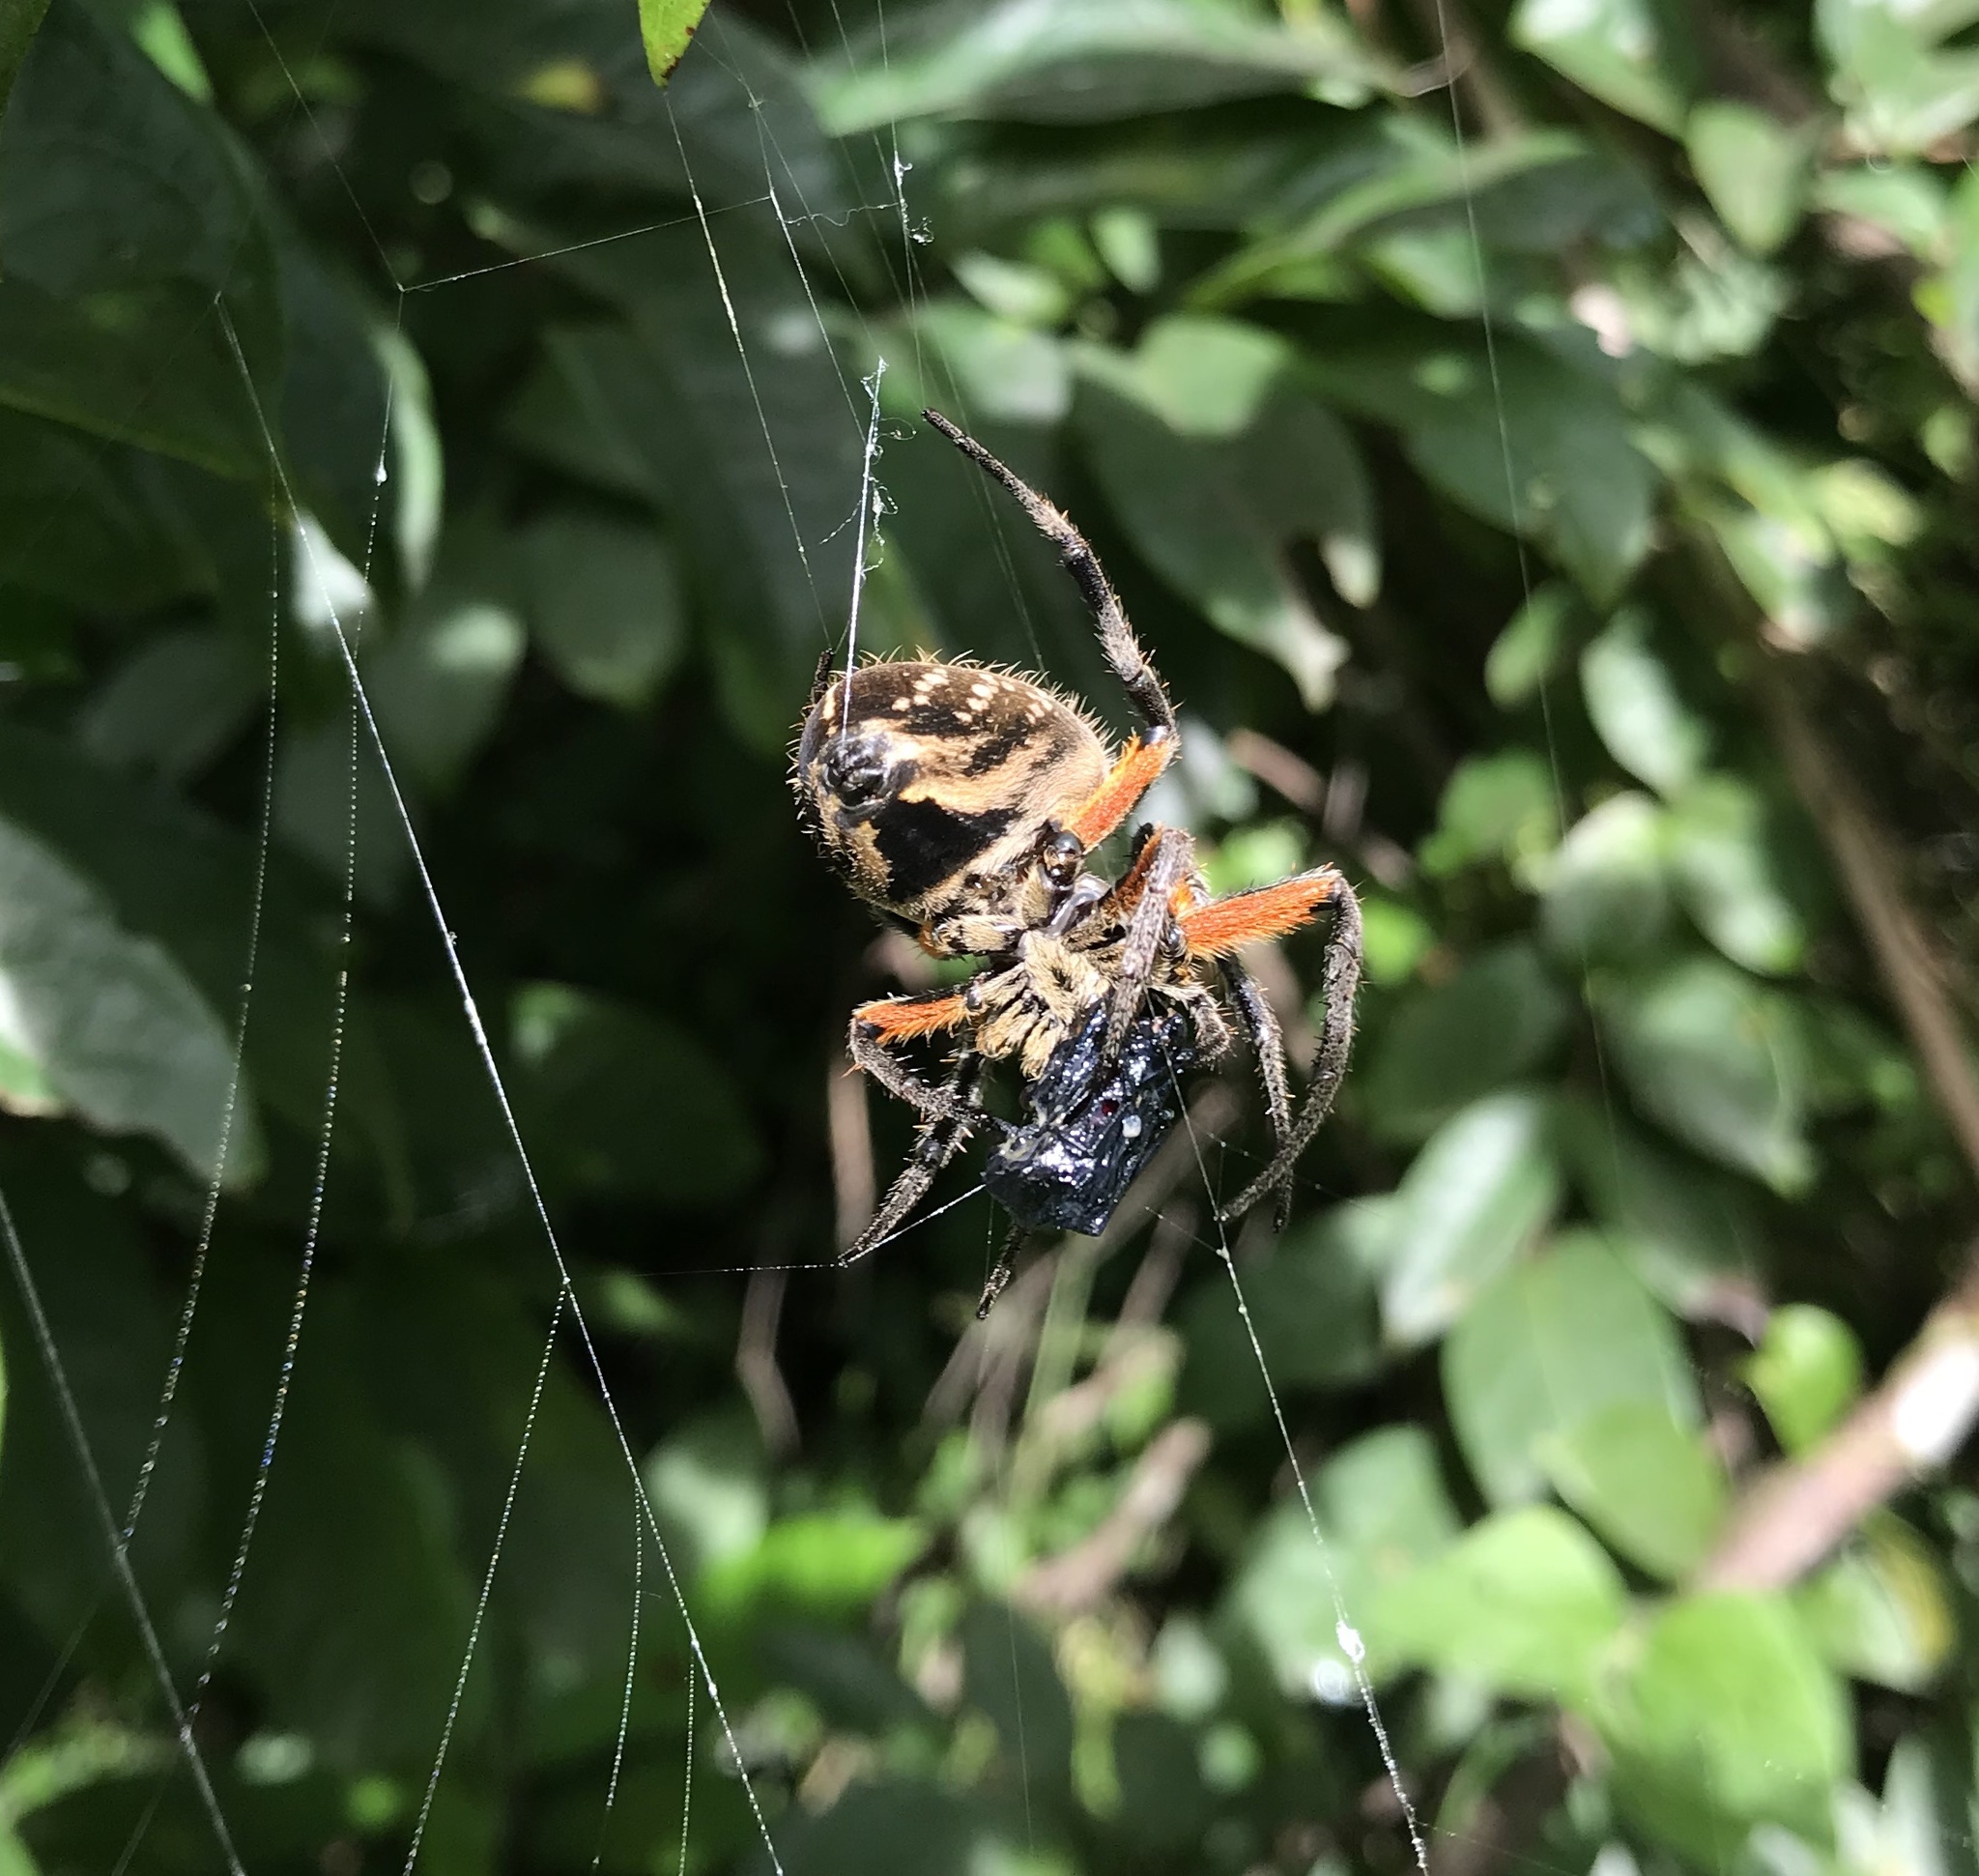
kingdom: Animalia
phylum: Arthropoda
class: Arachnida
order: Araneae
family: Araneidae
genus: Eriophora
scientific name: Eriophora fuliginea
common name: Orb weavers
